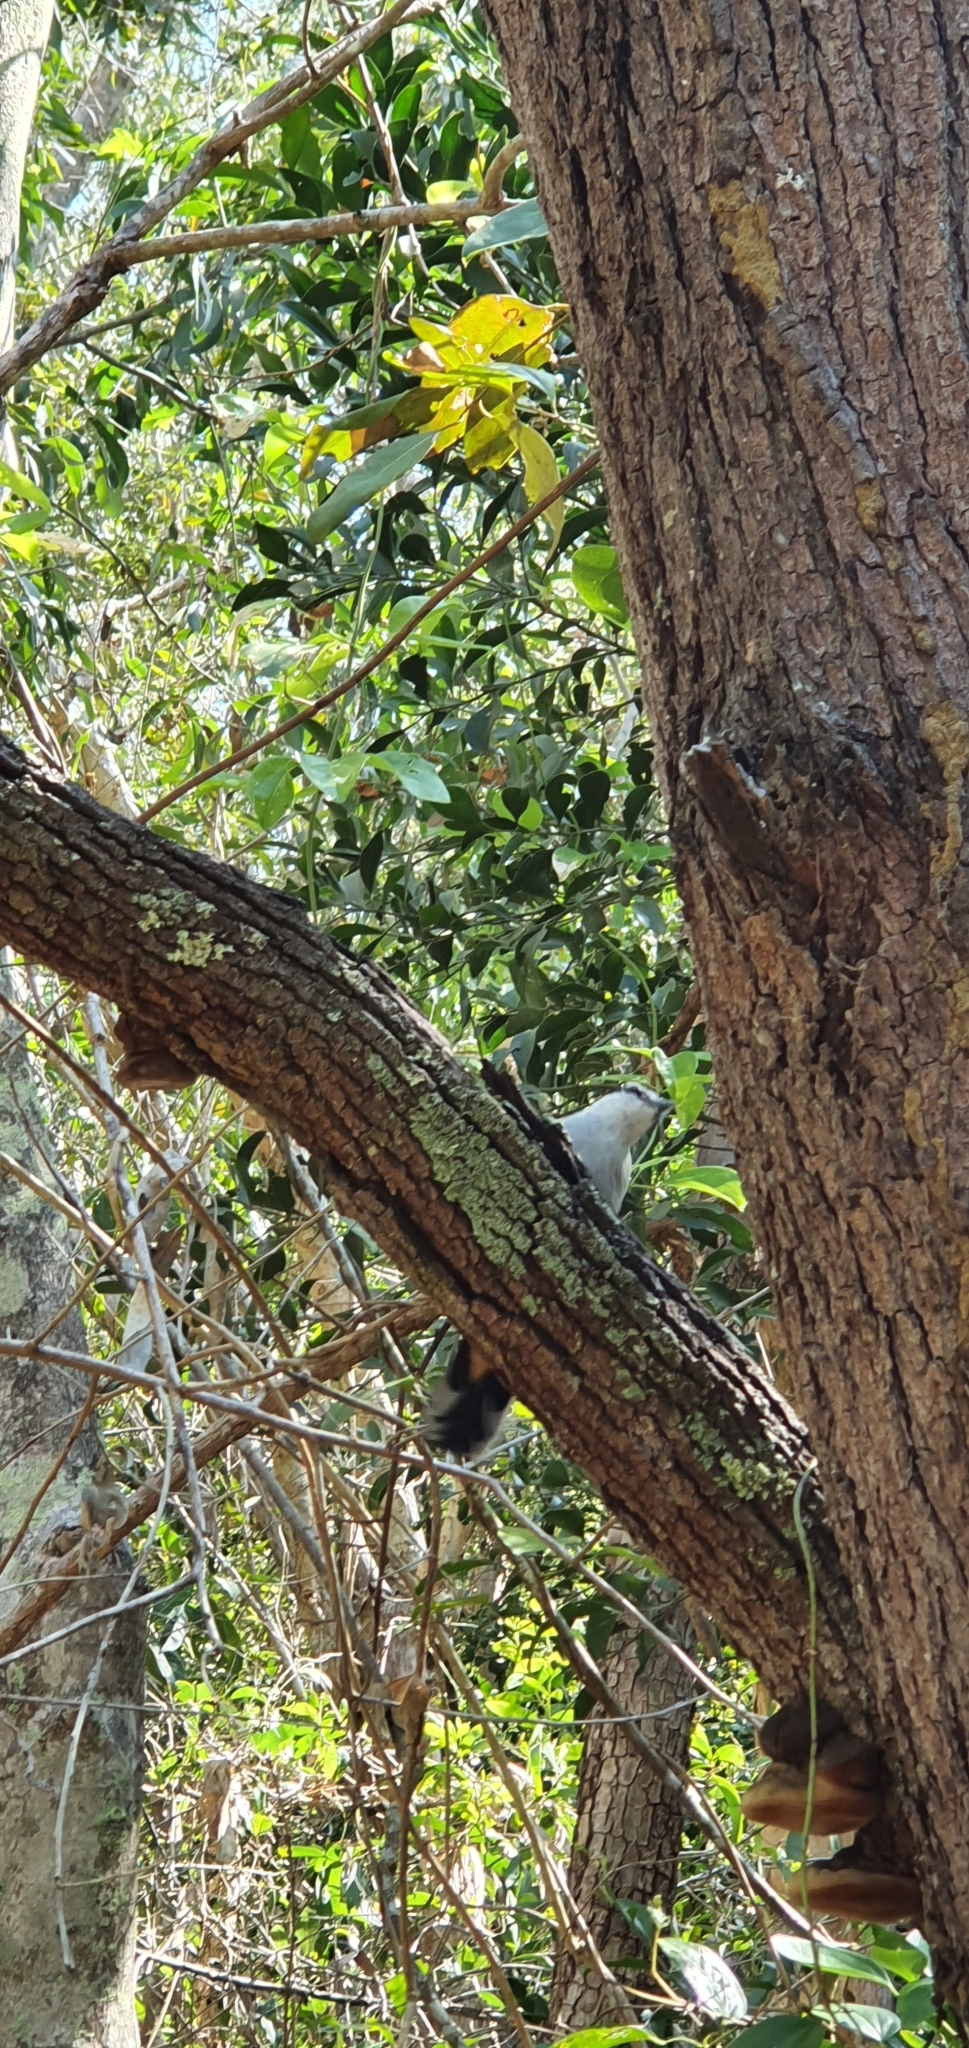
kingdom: Animalia
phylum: Chordata
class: Aves
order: Passeriformes
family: Campephagidae
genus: Lalage
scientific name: Lalage leucomela
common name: Varied triller
